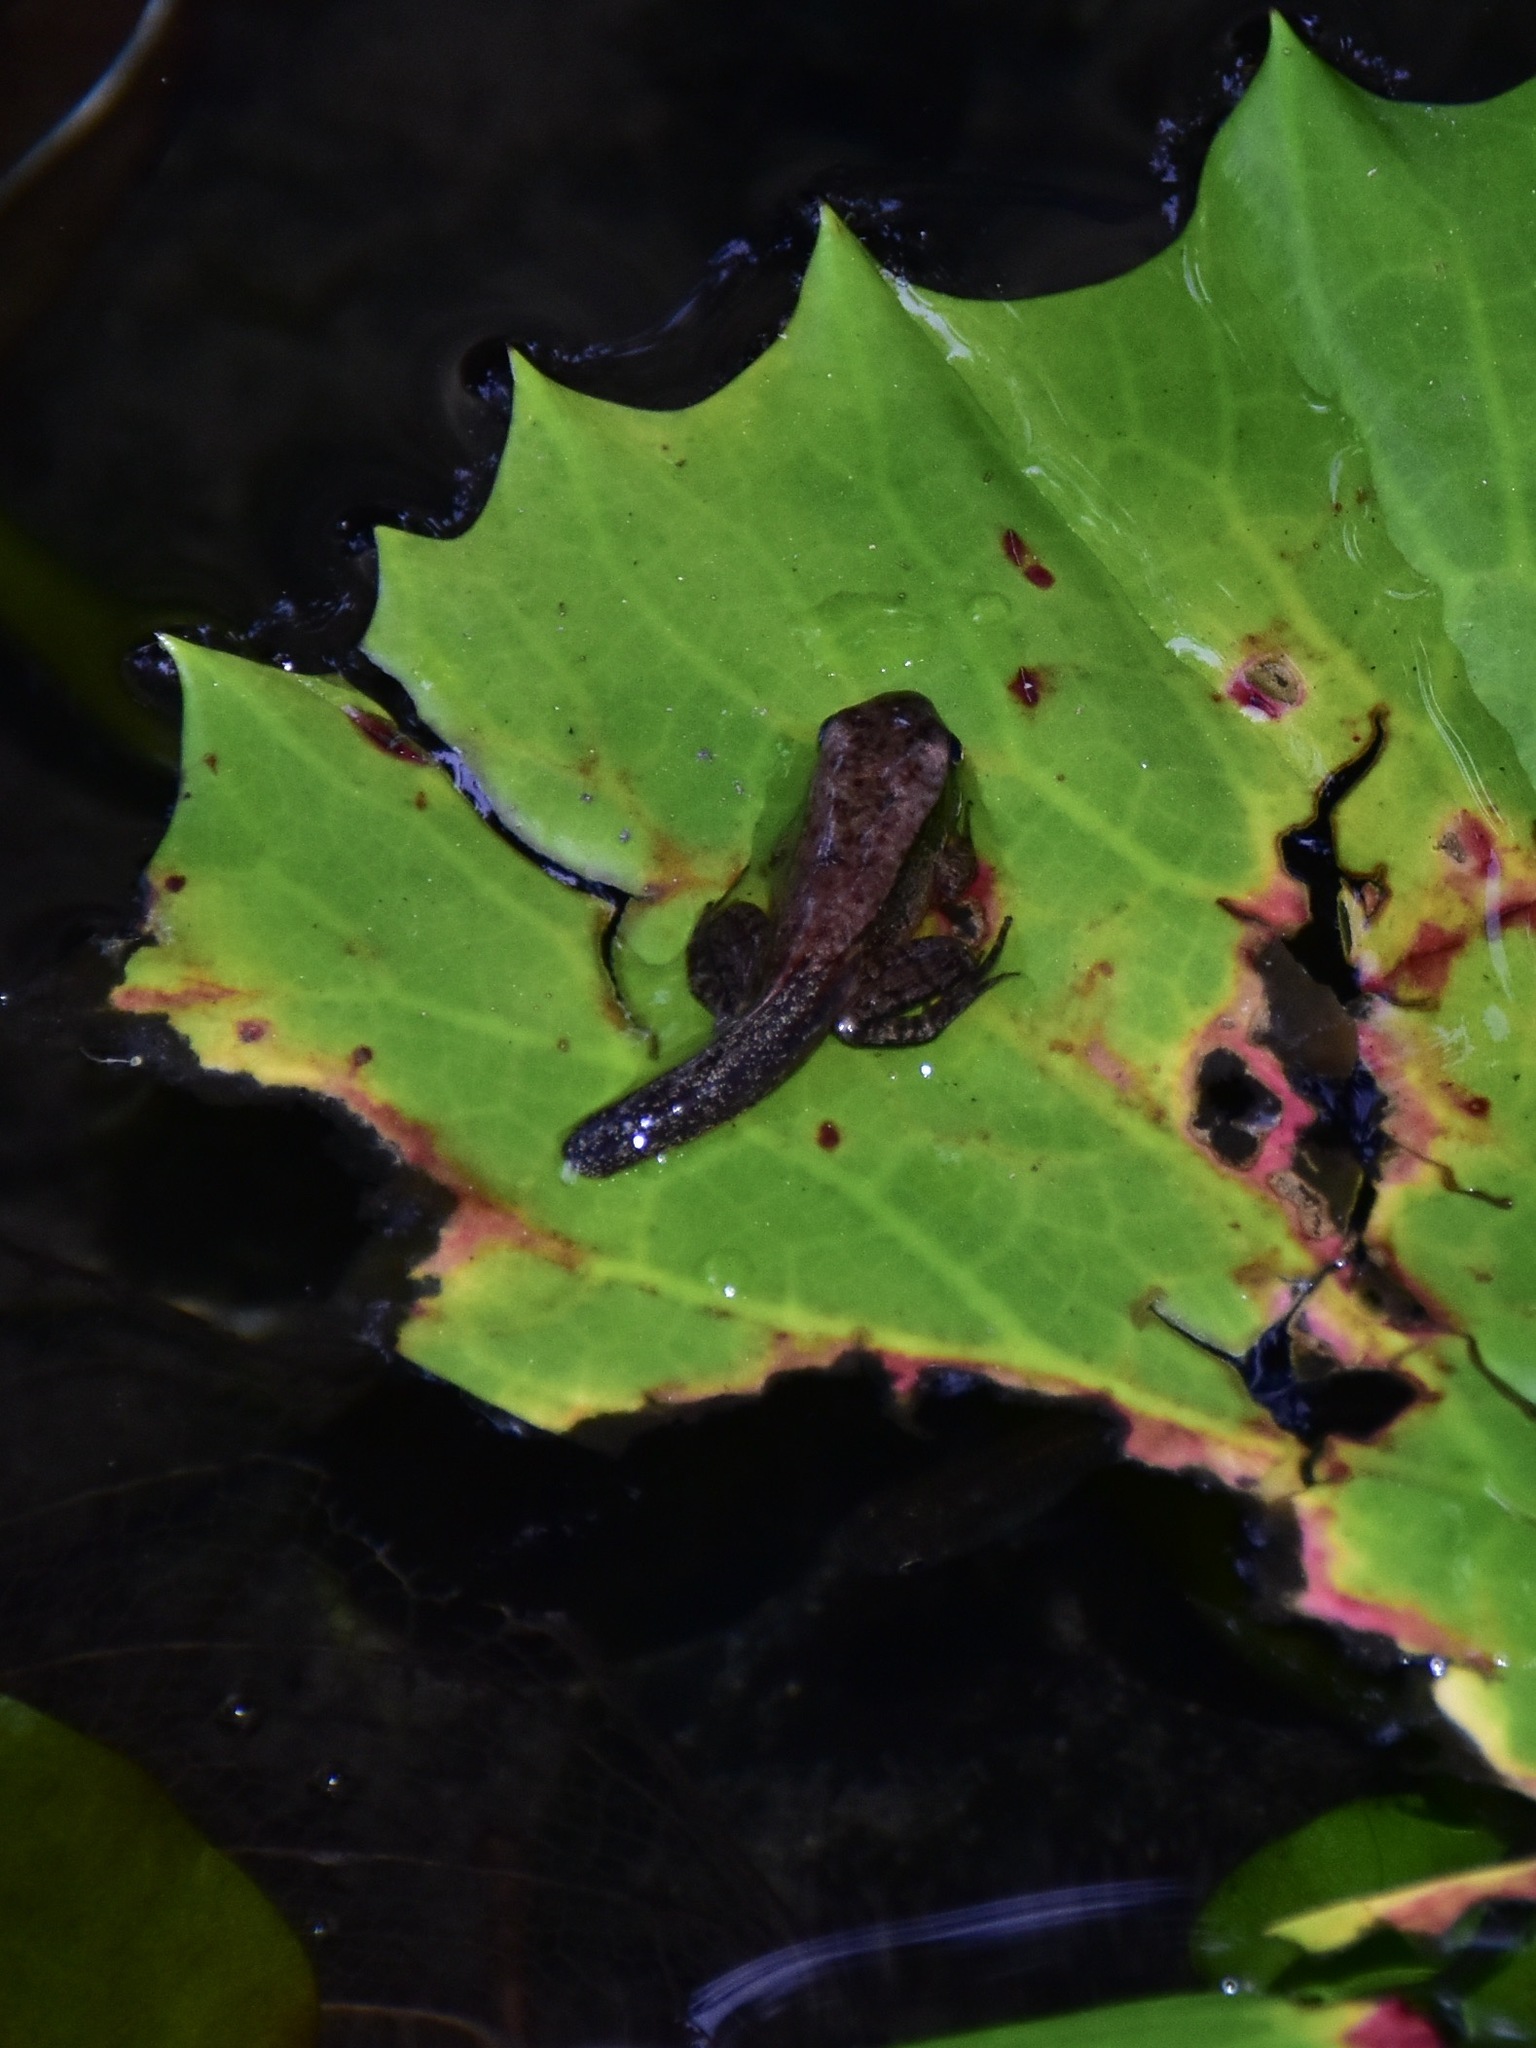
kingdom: Animalia
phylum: Chordata
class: Amphibia
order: Anura
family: Ranidae
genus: Sylvirana
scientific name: Sylvirana guentheri
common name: Guenther's amoy frog
